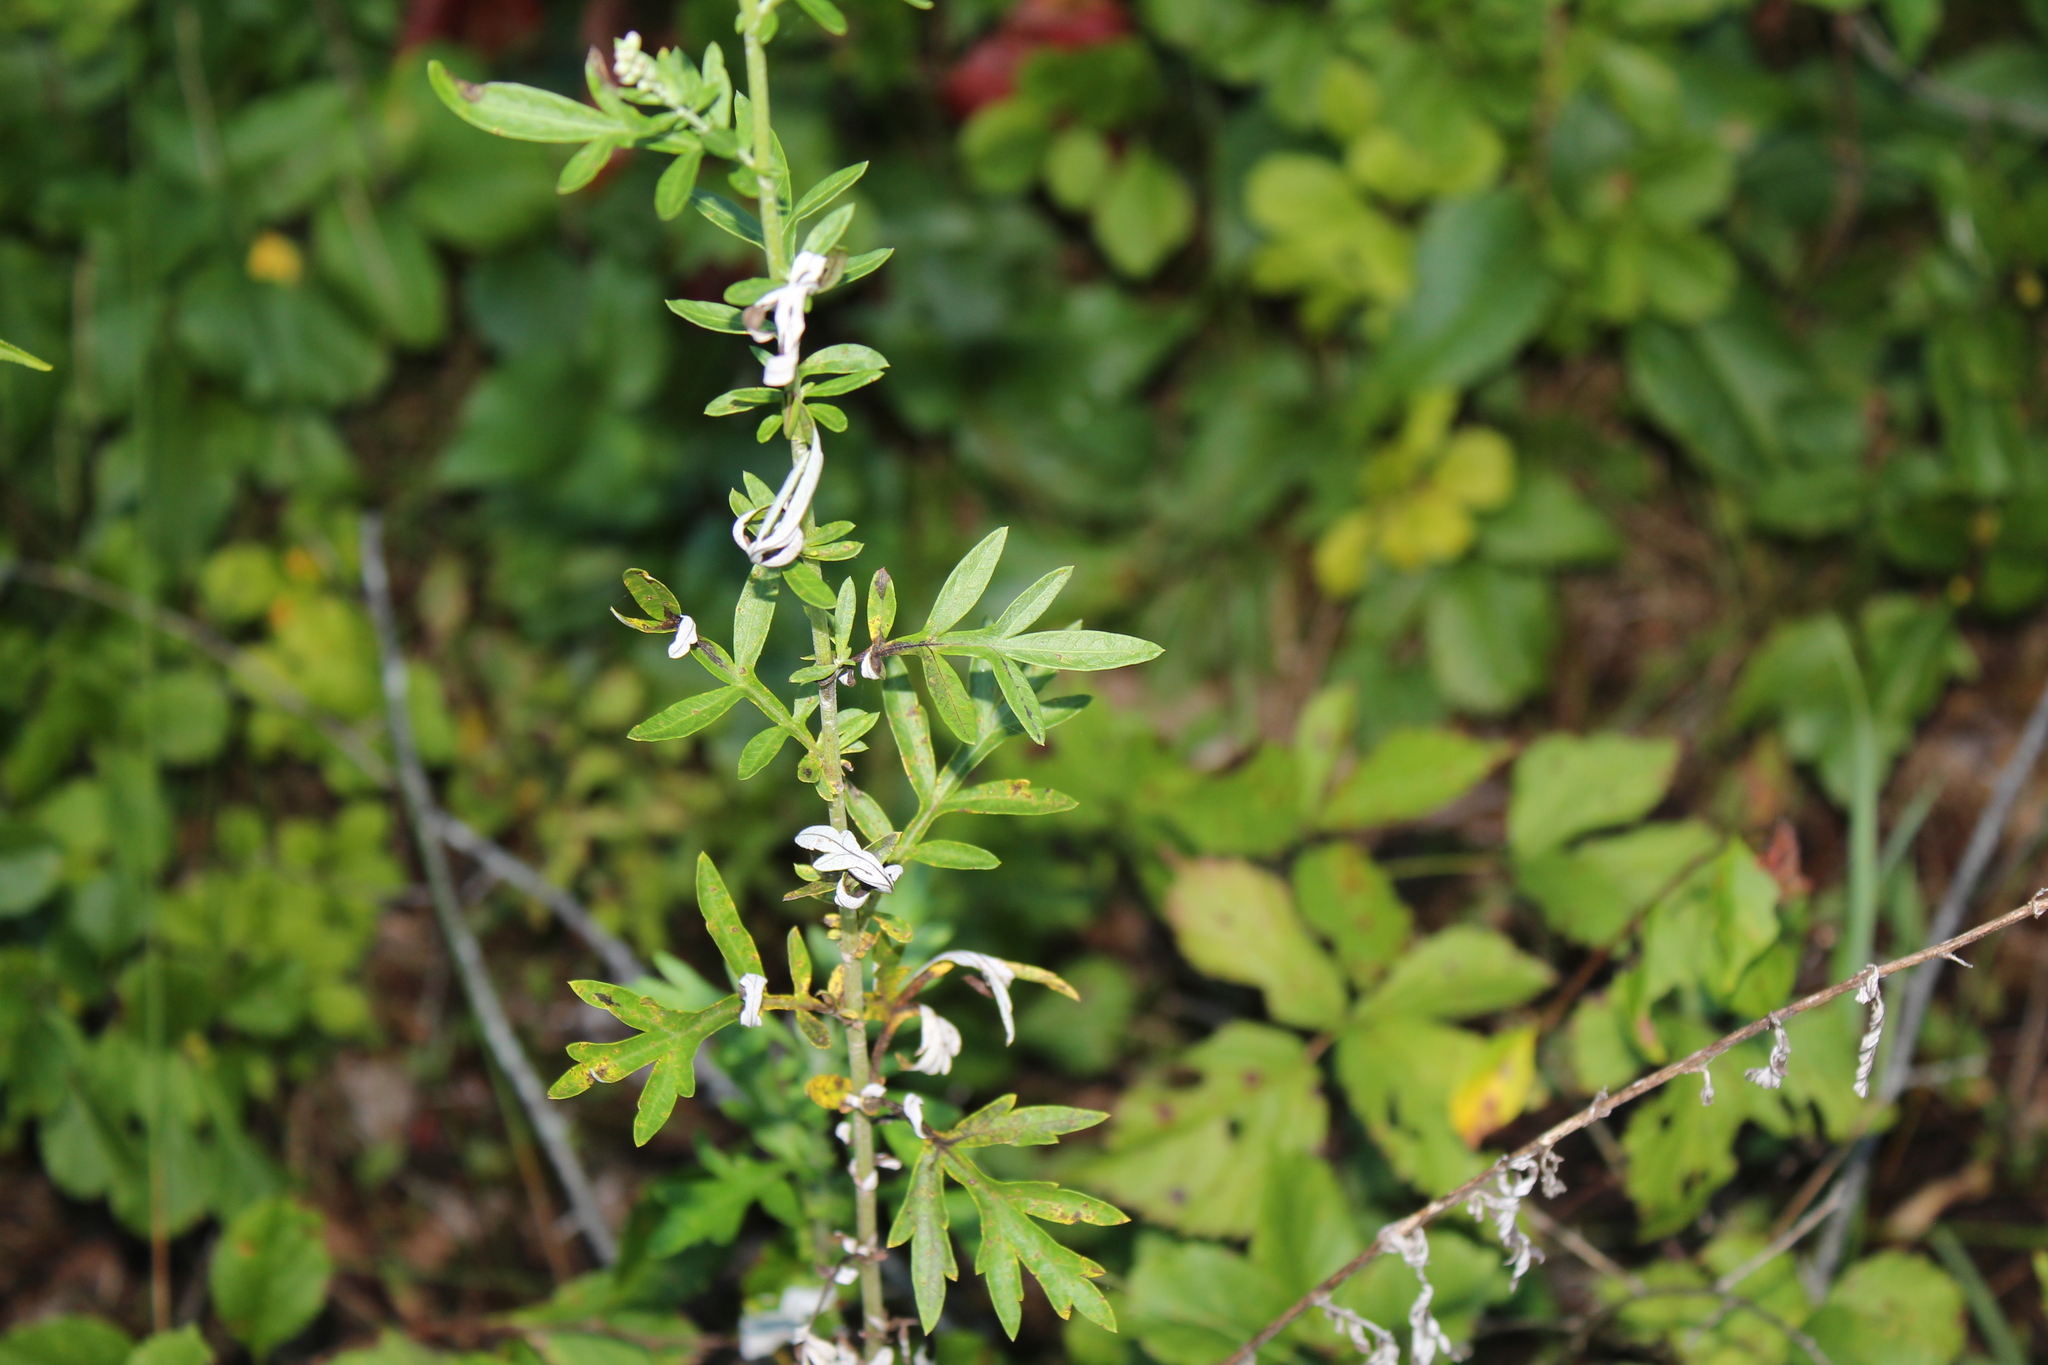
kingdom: Plantae
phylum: Tracheophyta
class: Magnoliopsida
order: Asterales
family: Asteraceae
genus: Artemisia
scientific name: Artemisia vulgaris
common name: Mugwort
